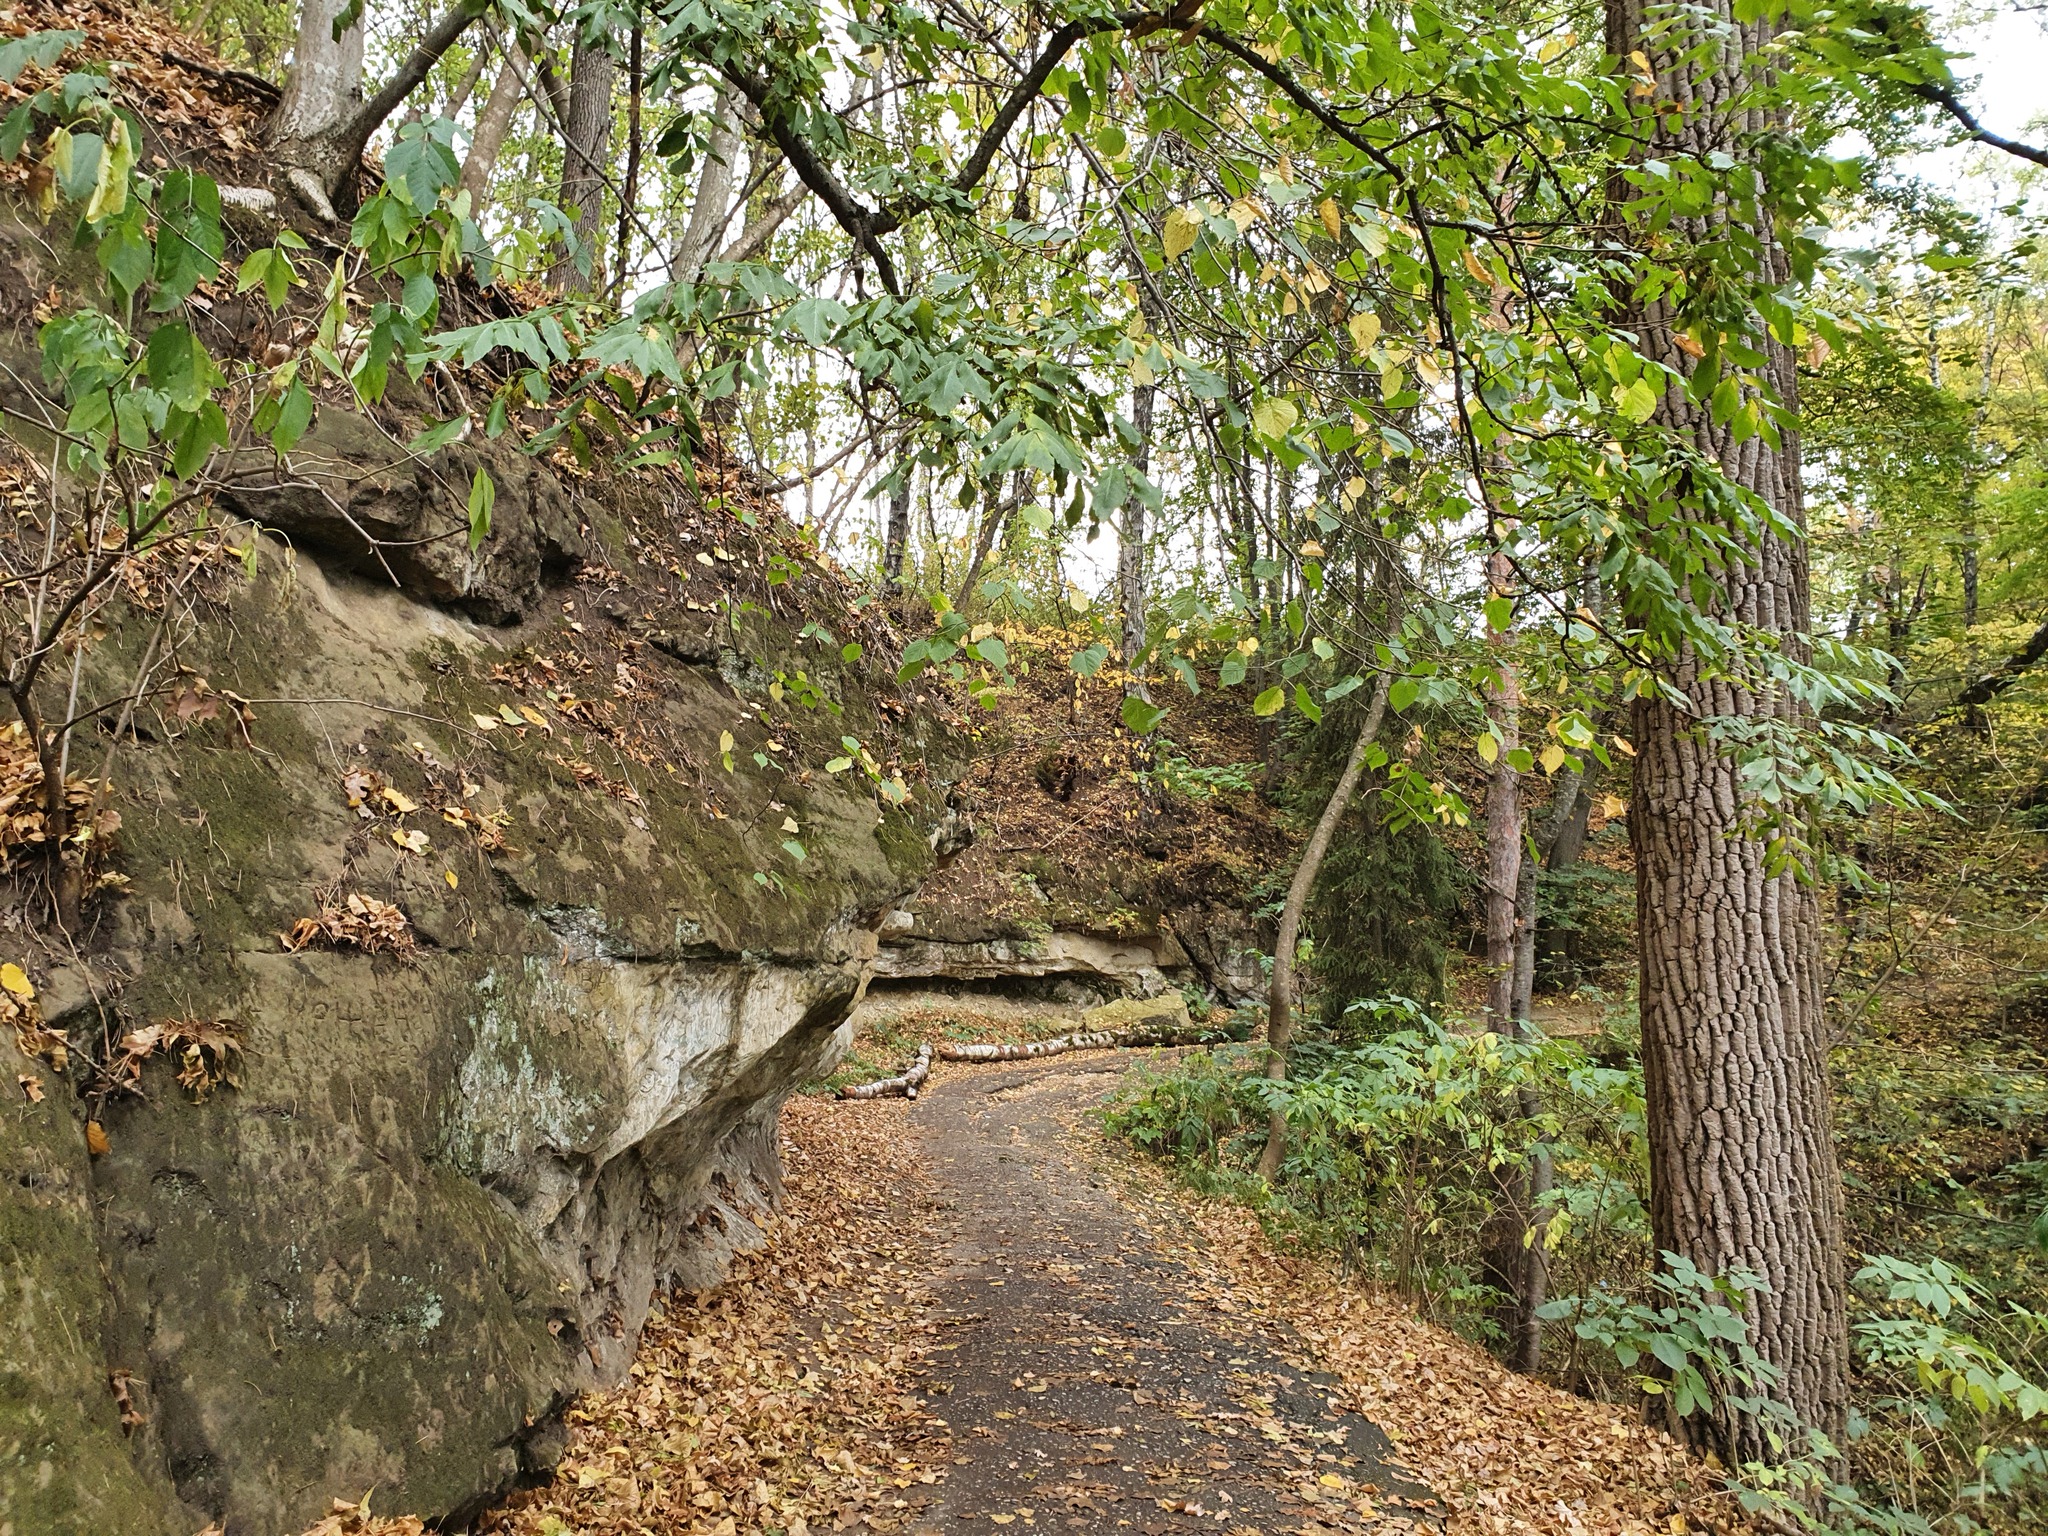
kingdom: Plantae
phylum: Tracheophyta
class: Magnoliopsida
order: Fagales
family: Betulaceae
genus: Carpinus
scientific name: Carpinus betulus
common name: Hornbeam
